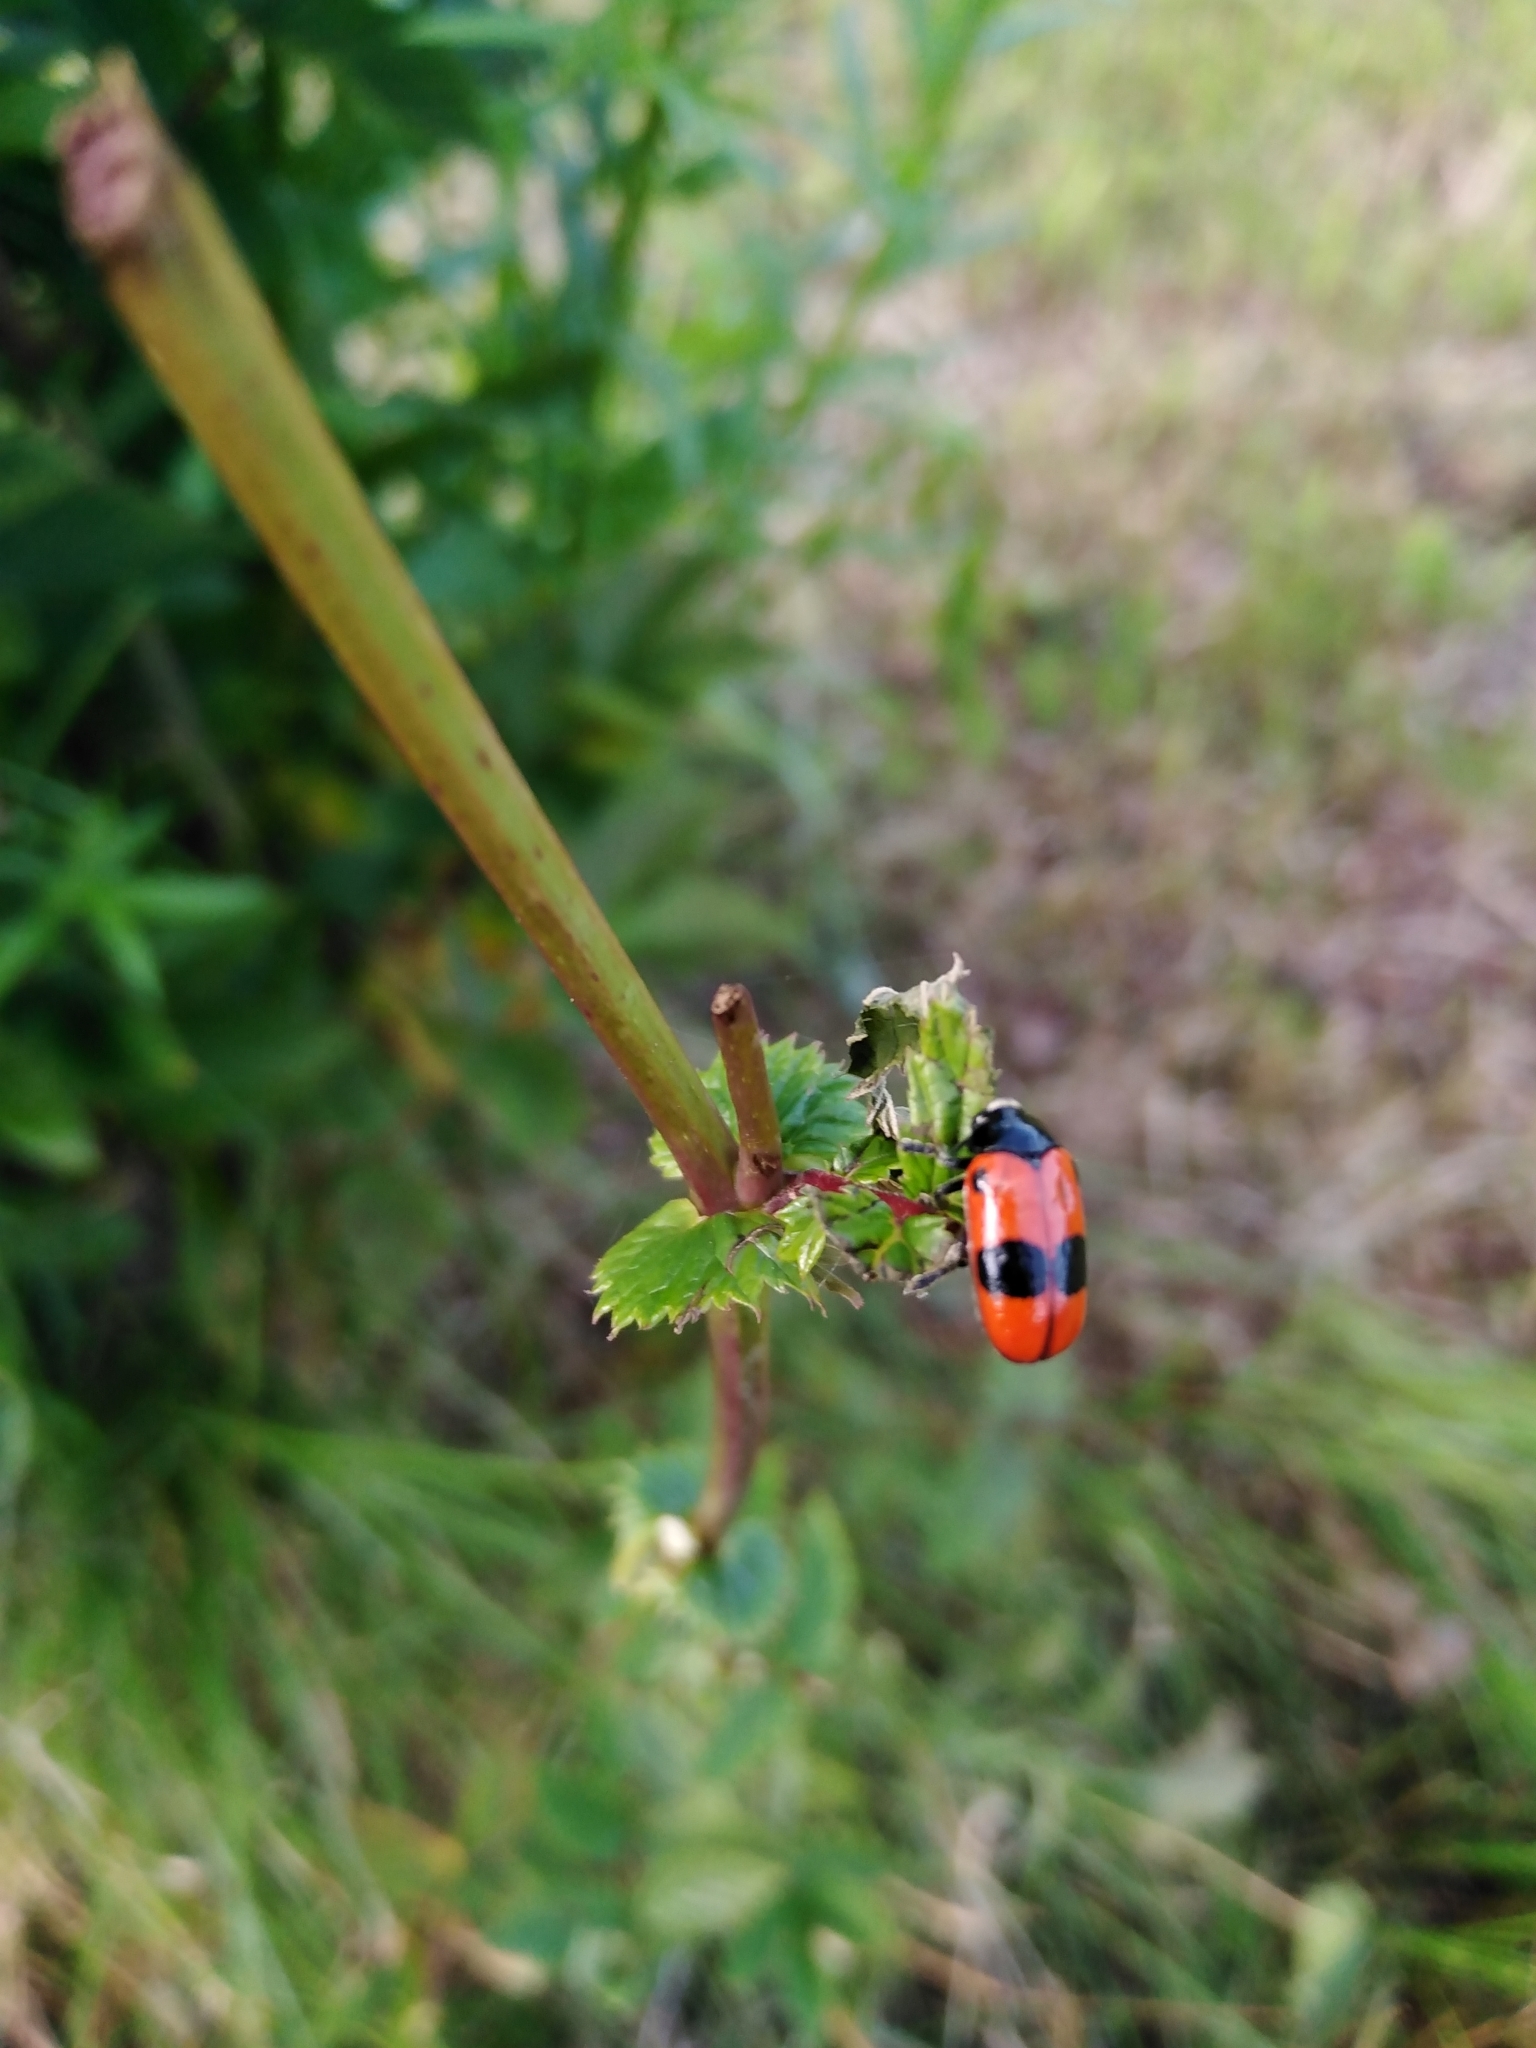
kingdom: Animalia
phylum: Arthropoda
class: Insecta
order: Coleoptera
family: Chrysomelidae
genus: Clytra
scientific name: Clytra laeviuscula
